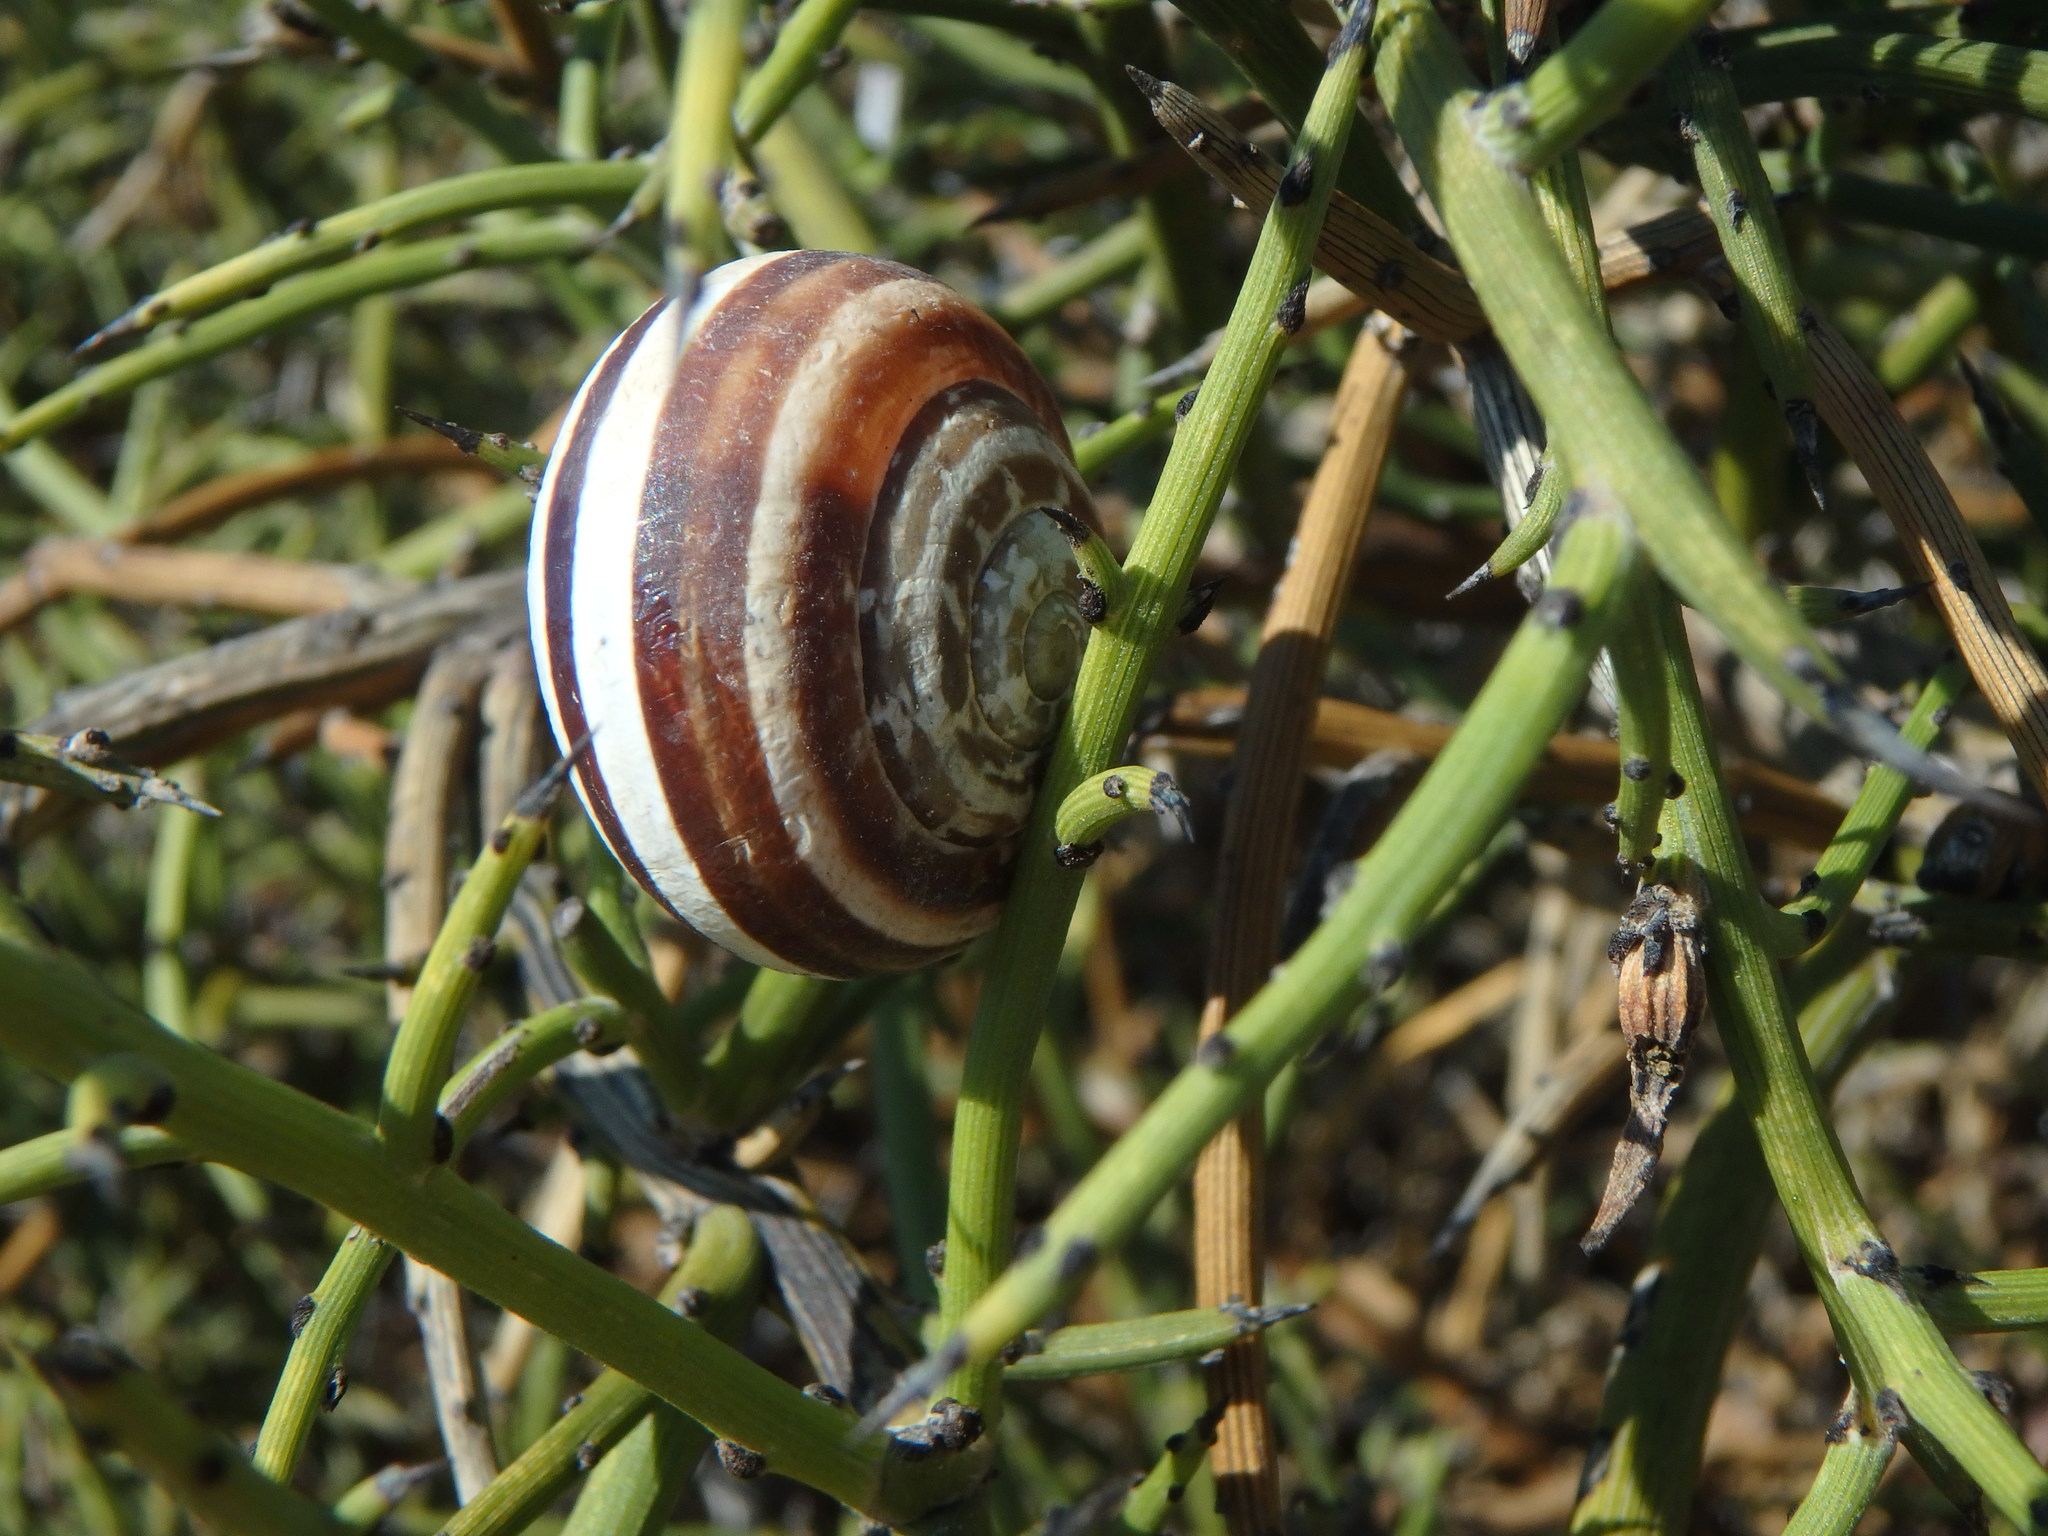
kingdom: Animalia
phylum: Mollusca
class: Gastropoda
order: Stylommatophora
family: Helicidae
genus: Eobania
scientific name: Eobania vermiculata
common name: Chocolateband snail
